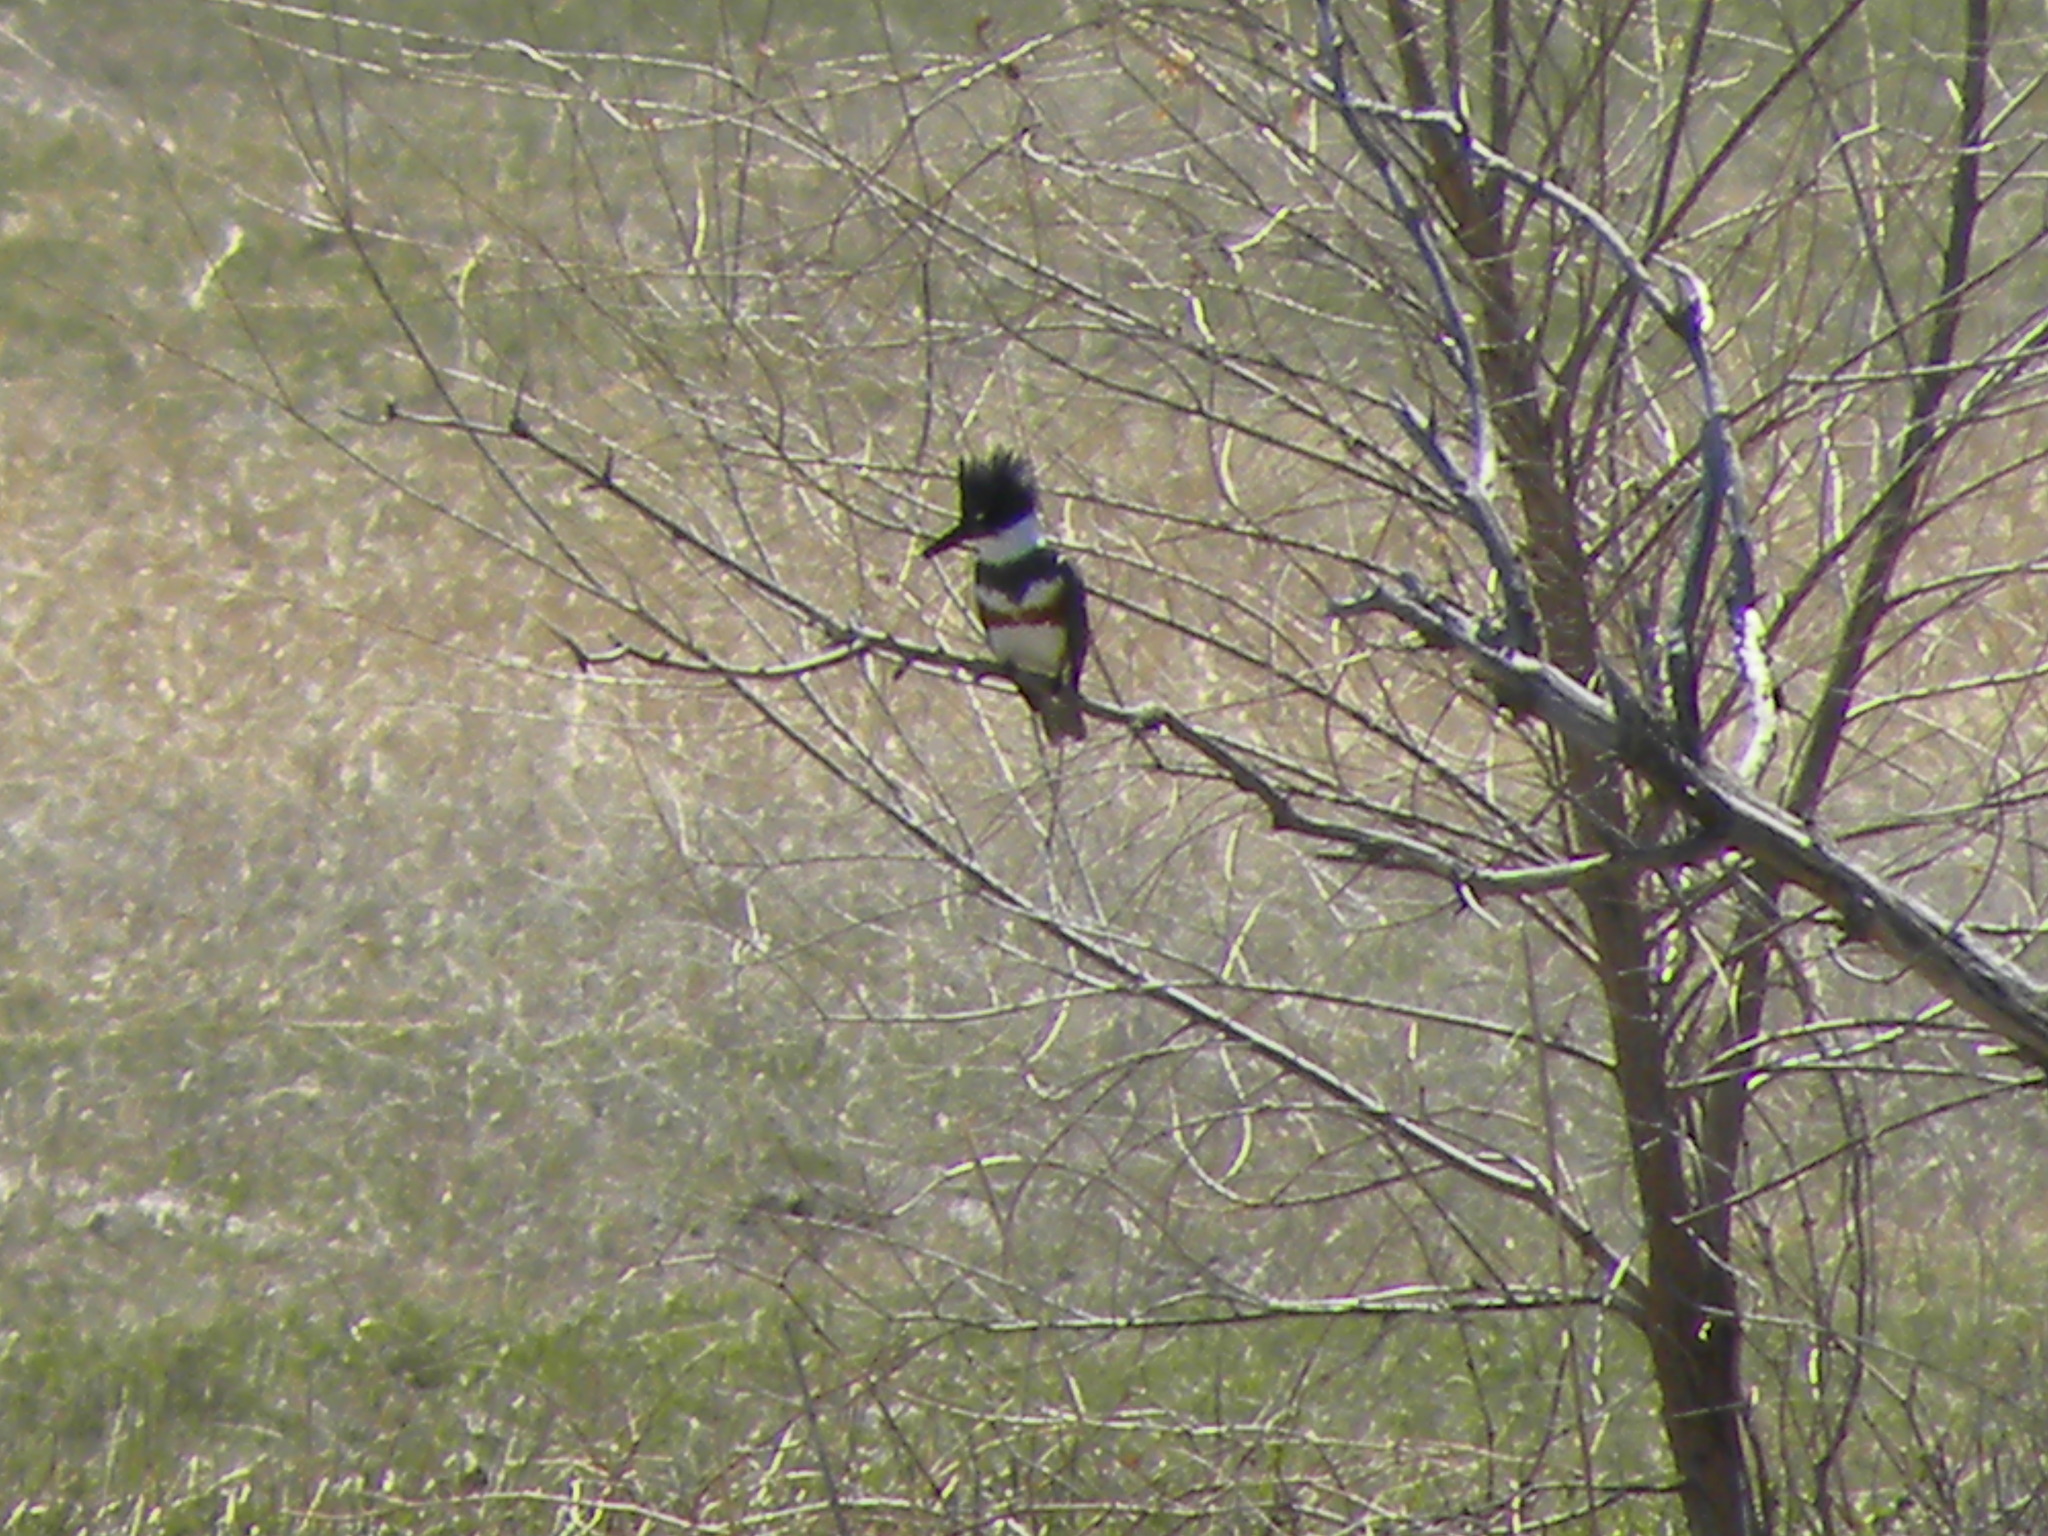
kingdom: Animalia
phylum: Chordata
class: Aves
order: Coraciiformes
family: Alcedinidae
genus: Megaceryle
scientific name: Megaceryle alcyon
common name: Belted kingfisher
